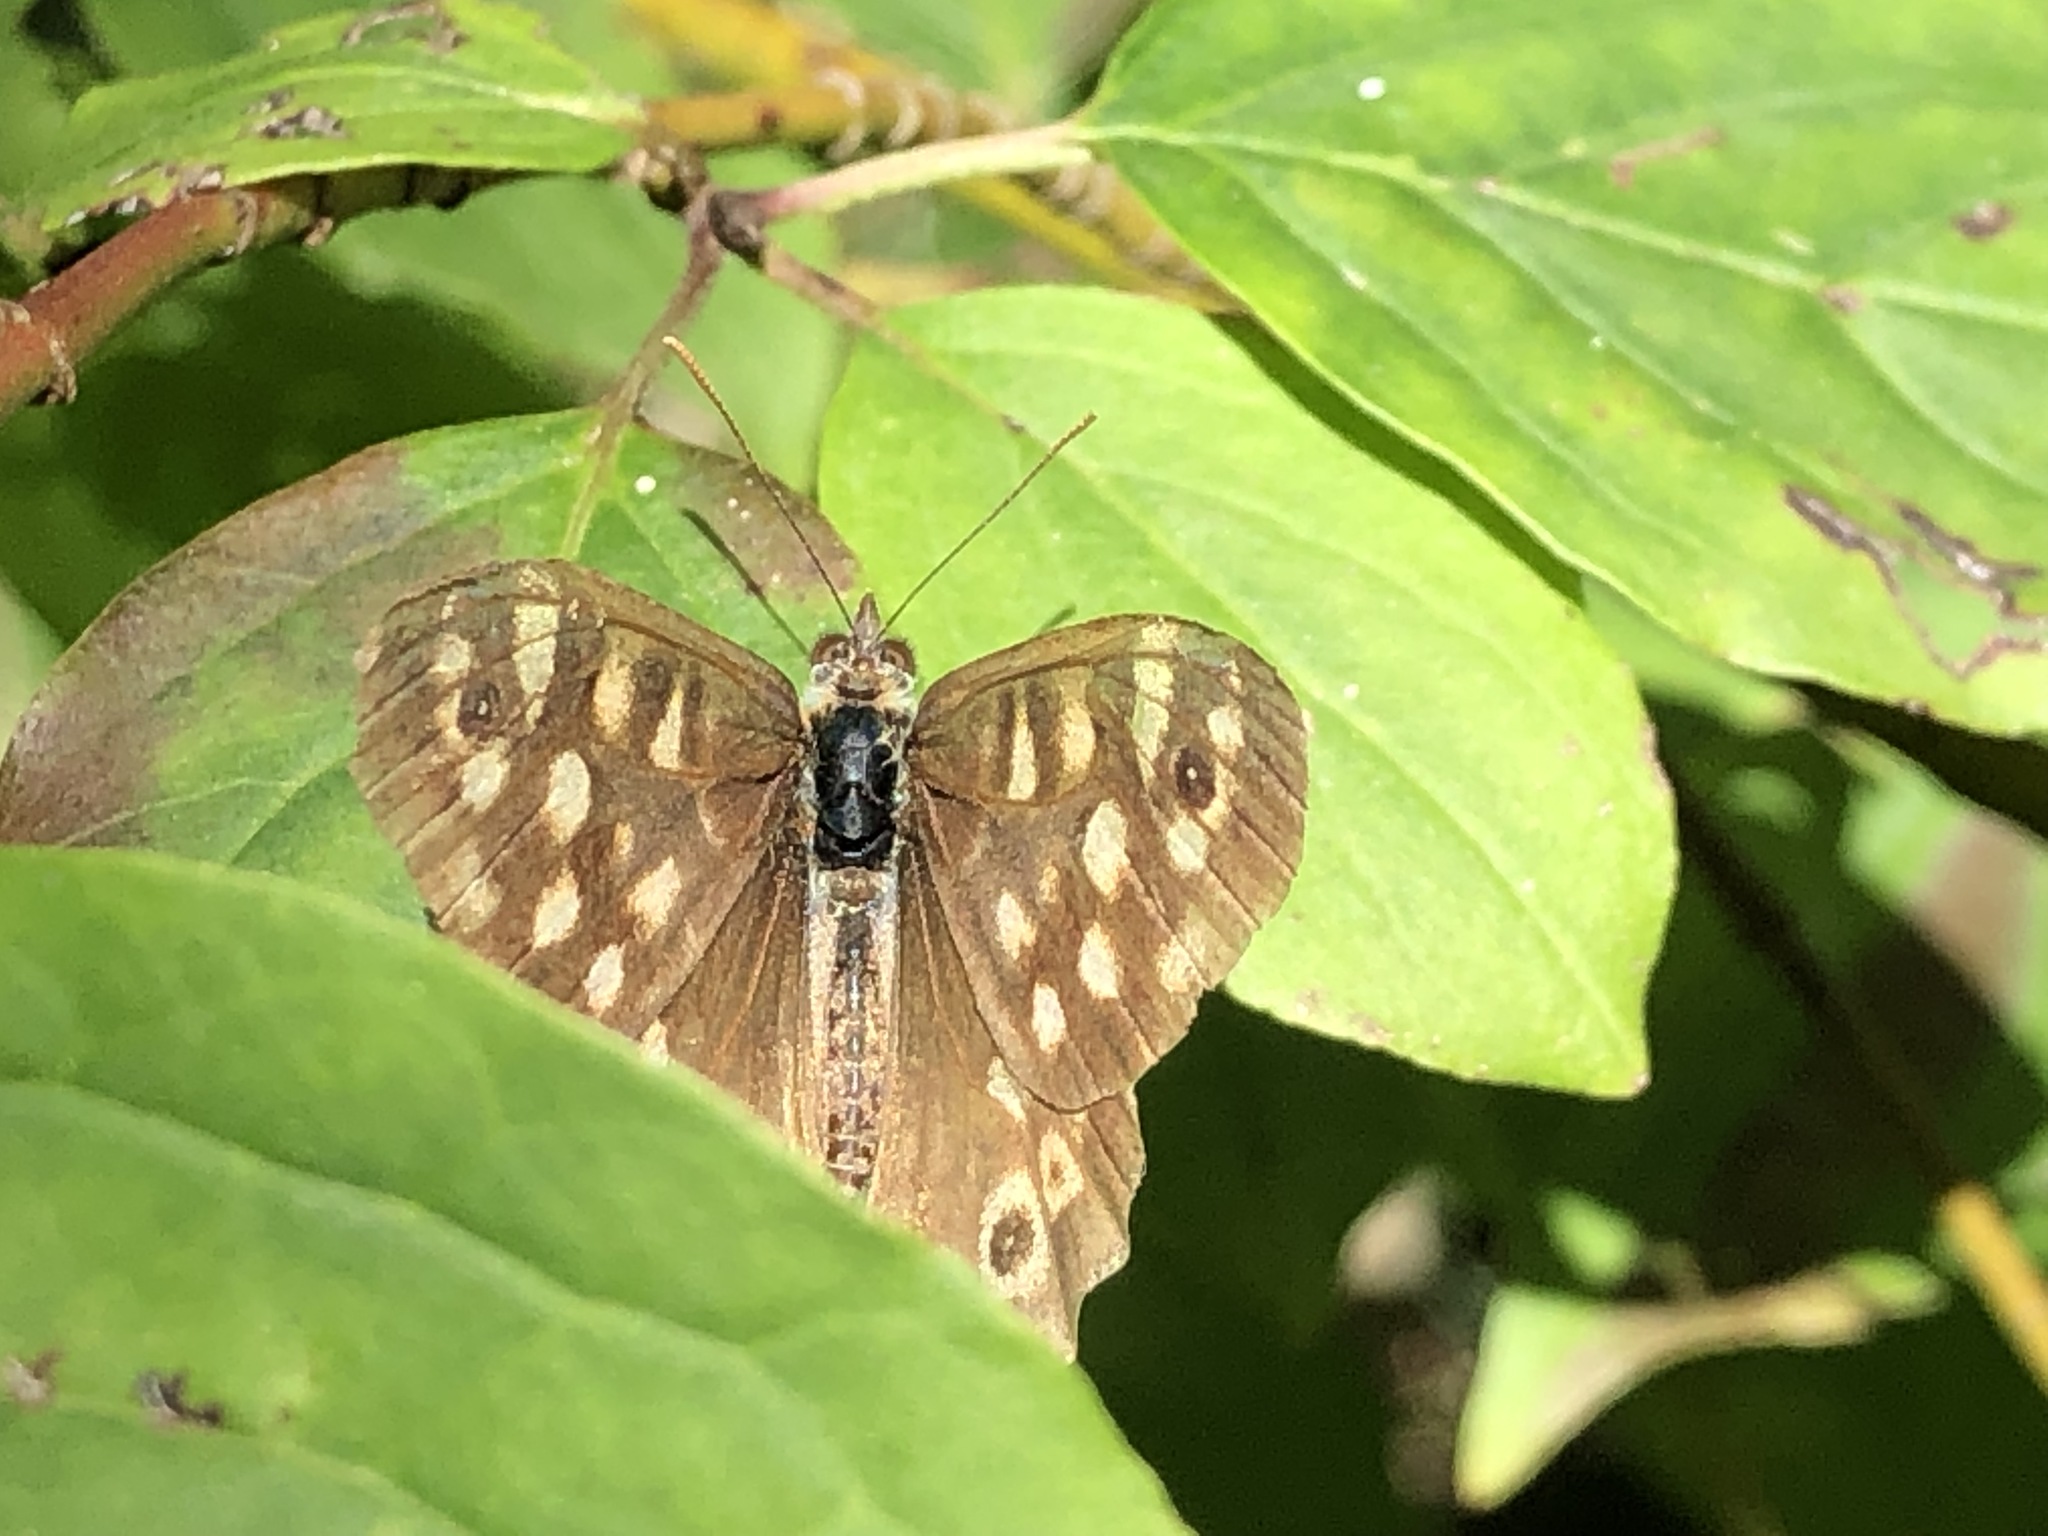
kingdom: Animalia
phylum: Arthropoda
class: Insecta
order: Lepidoptera
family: Nymphalidae
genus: Pararge
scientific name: Pararge aegeria
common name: Speckled wood
